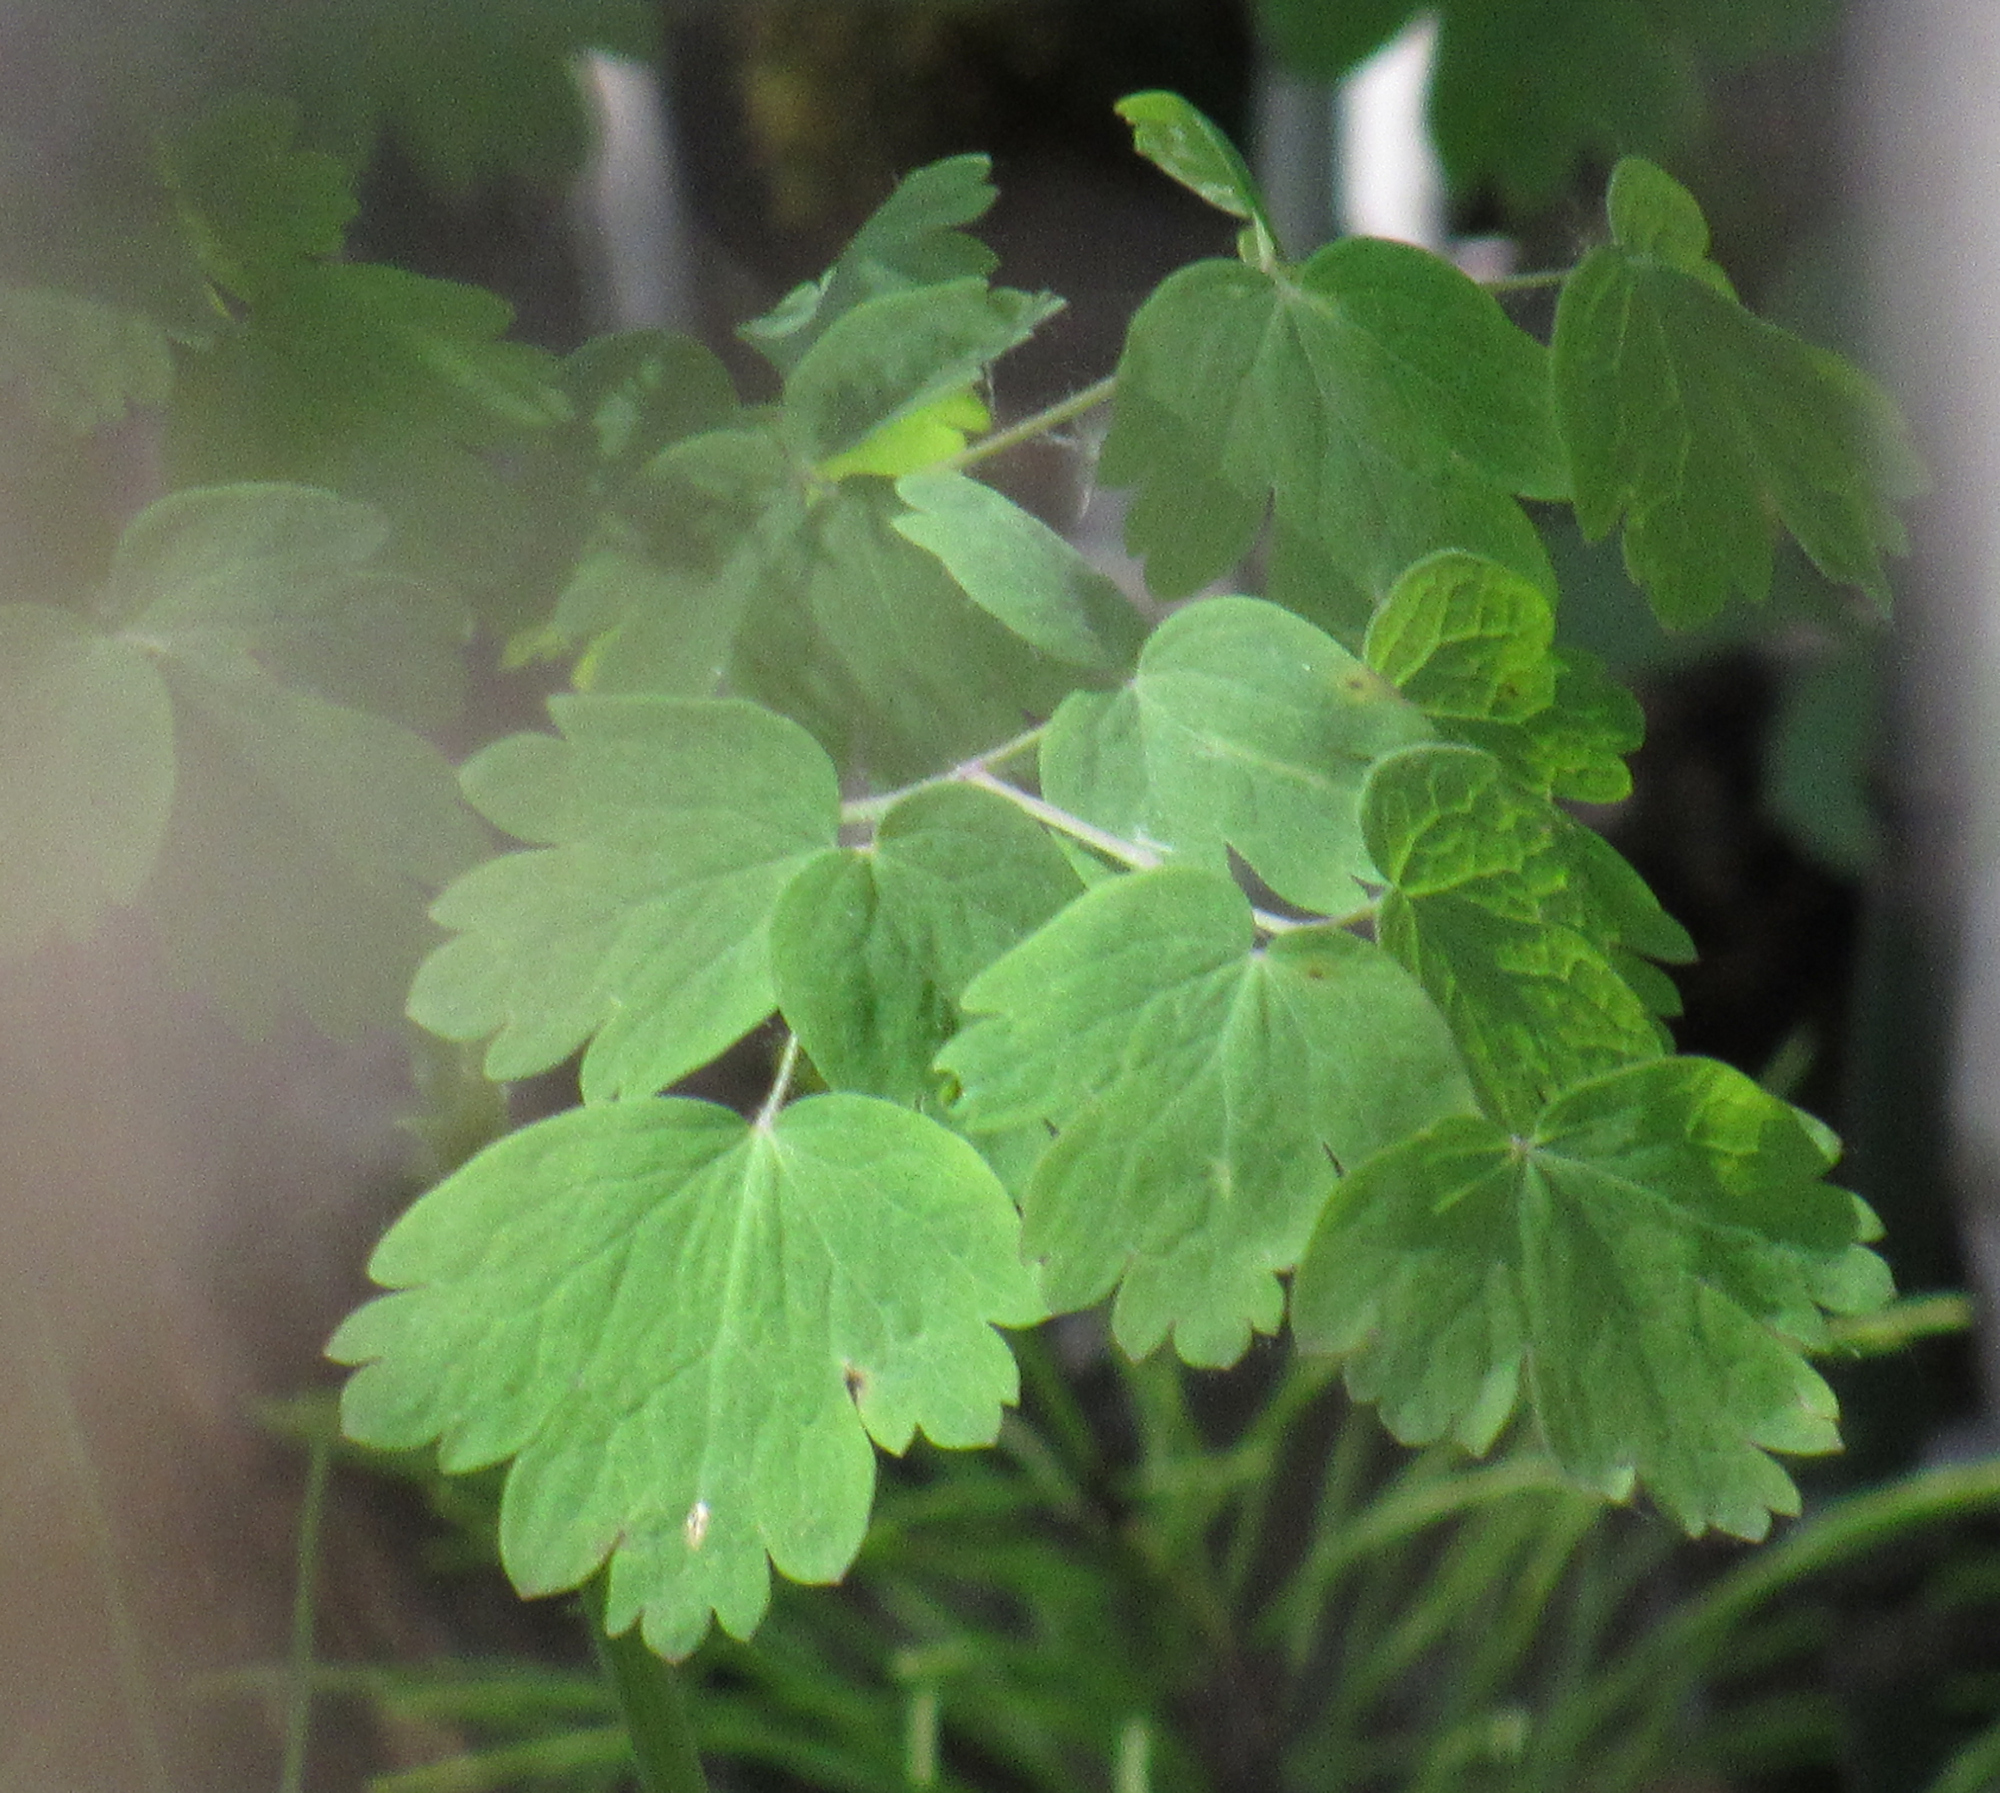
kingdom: Plantae
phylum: Tracheophyta
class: Magnoliopsida
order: Ranunculales
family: Ranunculaceae
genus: Thalictrum
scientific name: Thalictrum occidentale
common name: Western meadow-rue
